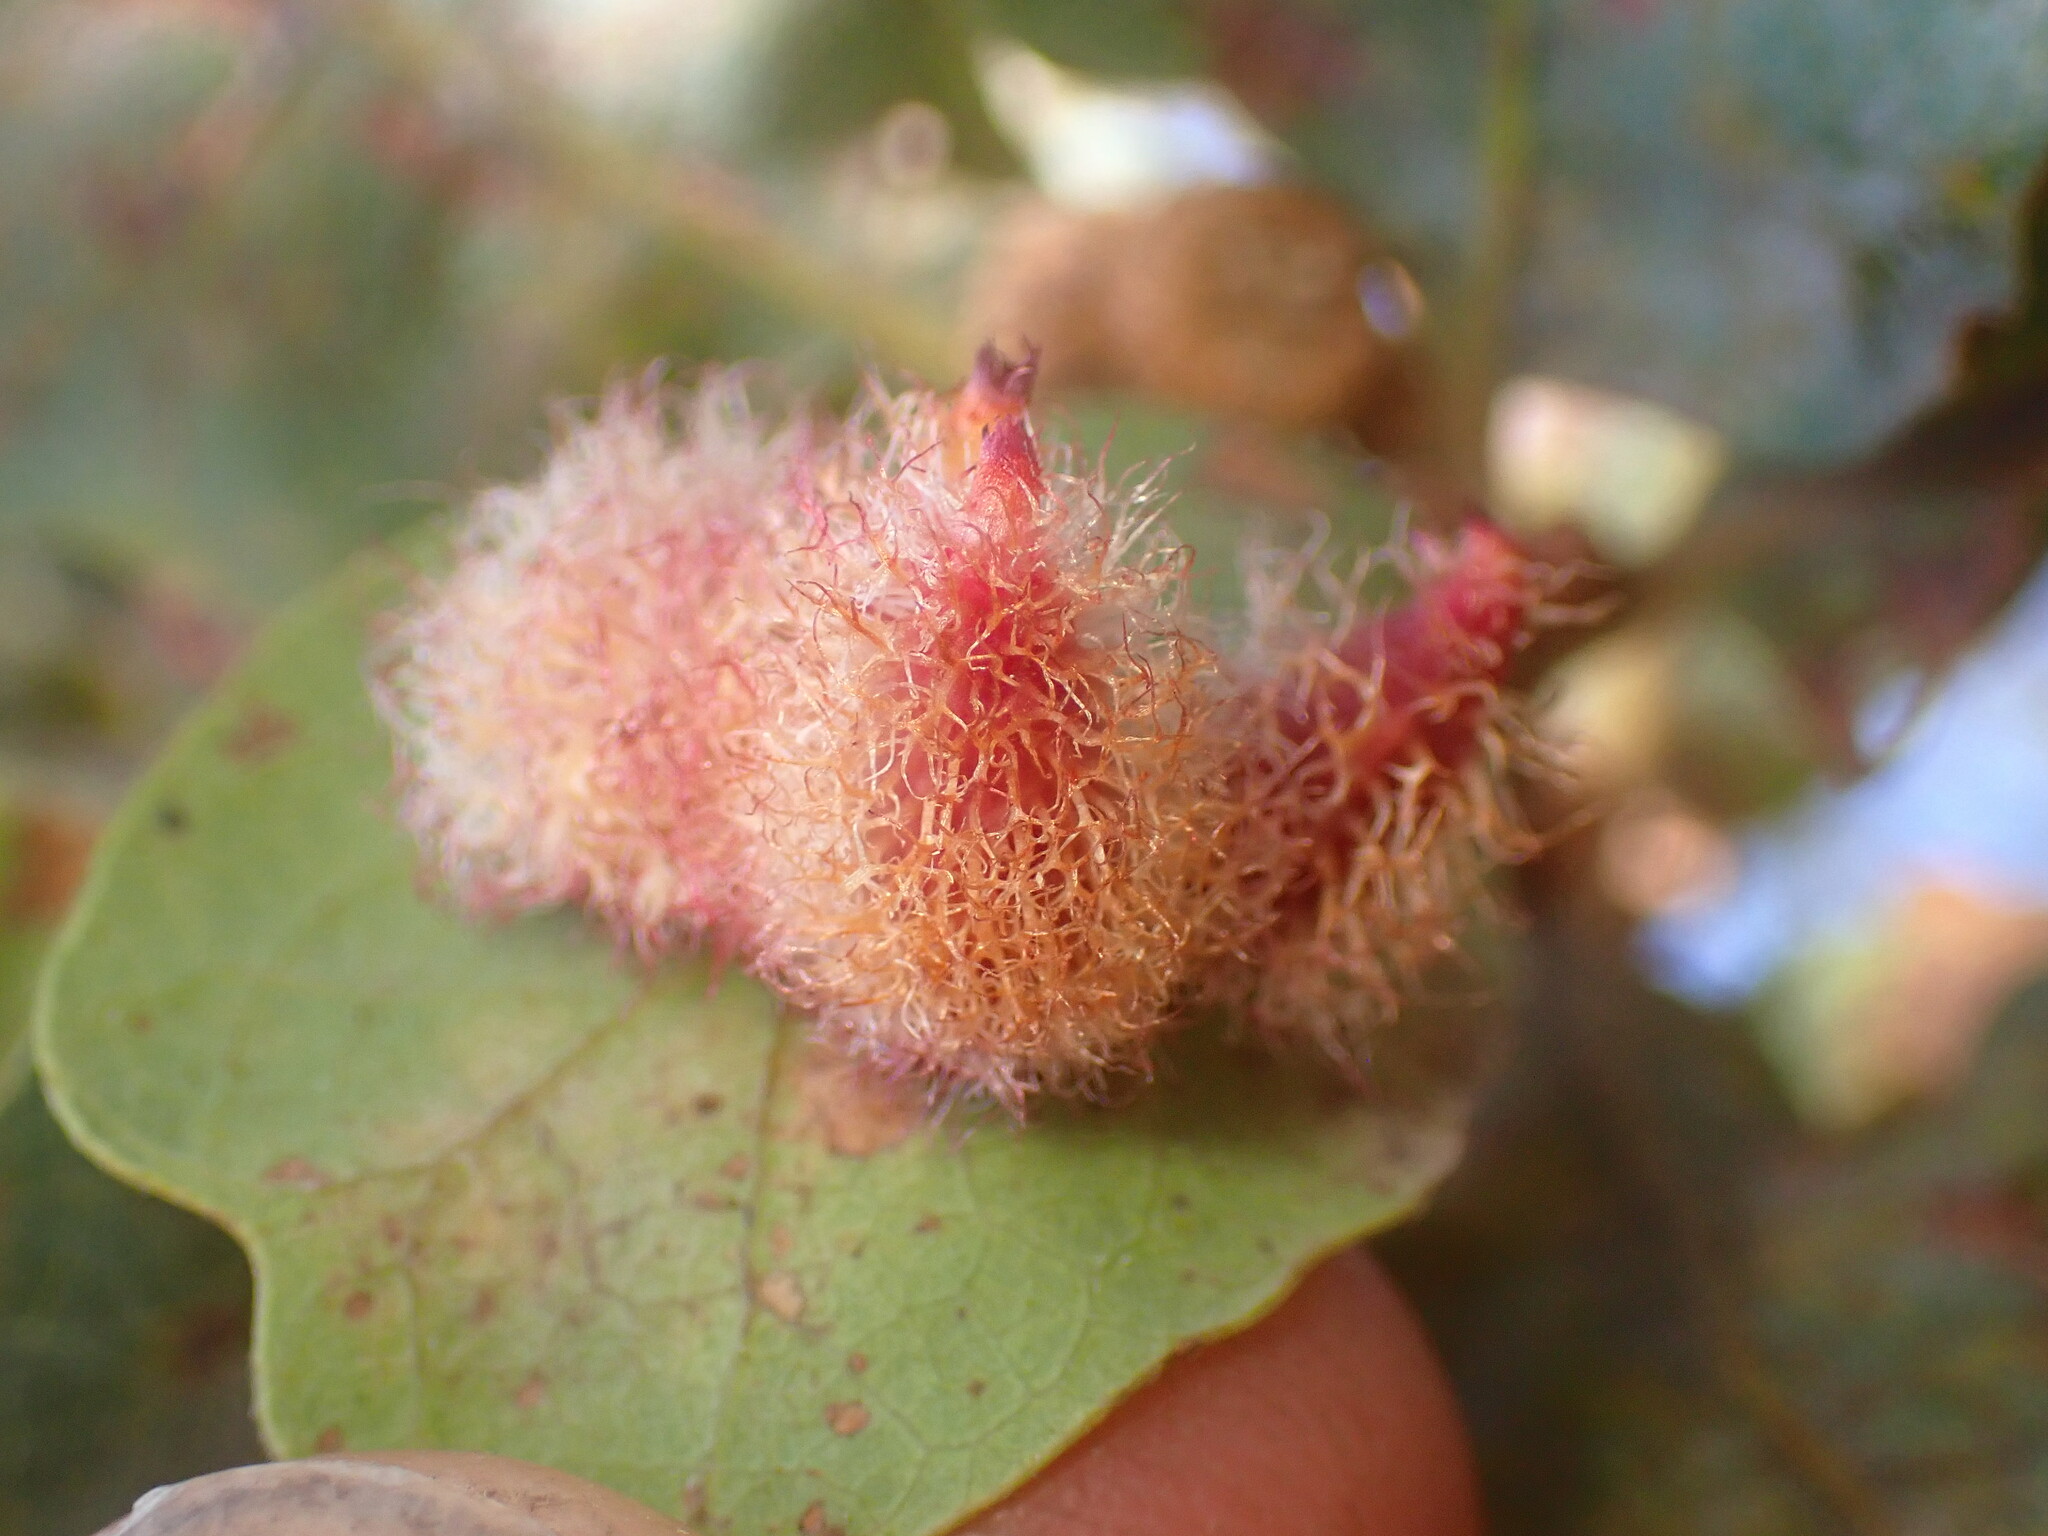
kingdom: Animalia
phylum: Arthropoda
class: Insecta
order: Hymenoptera
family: Cynipidae
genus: Andricus
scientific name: Andricus
